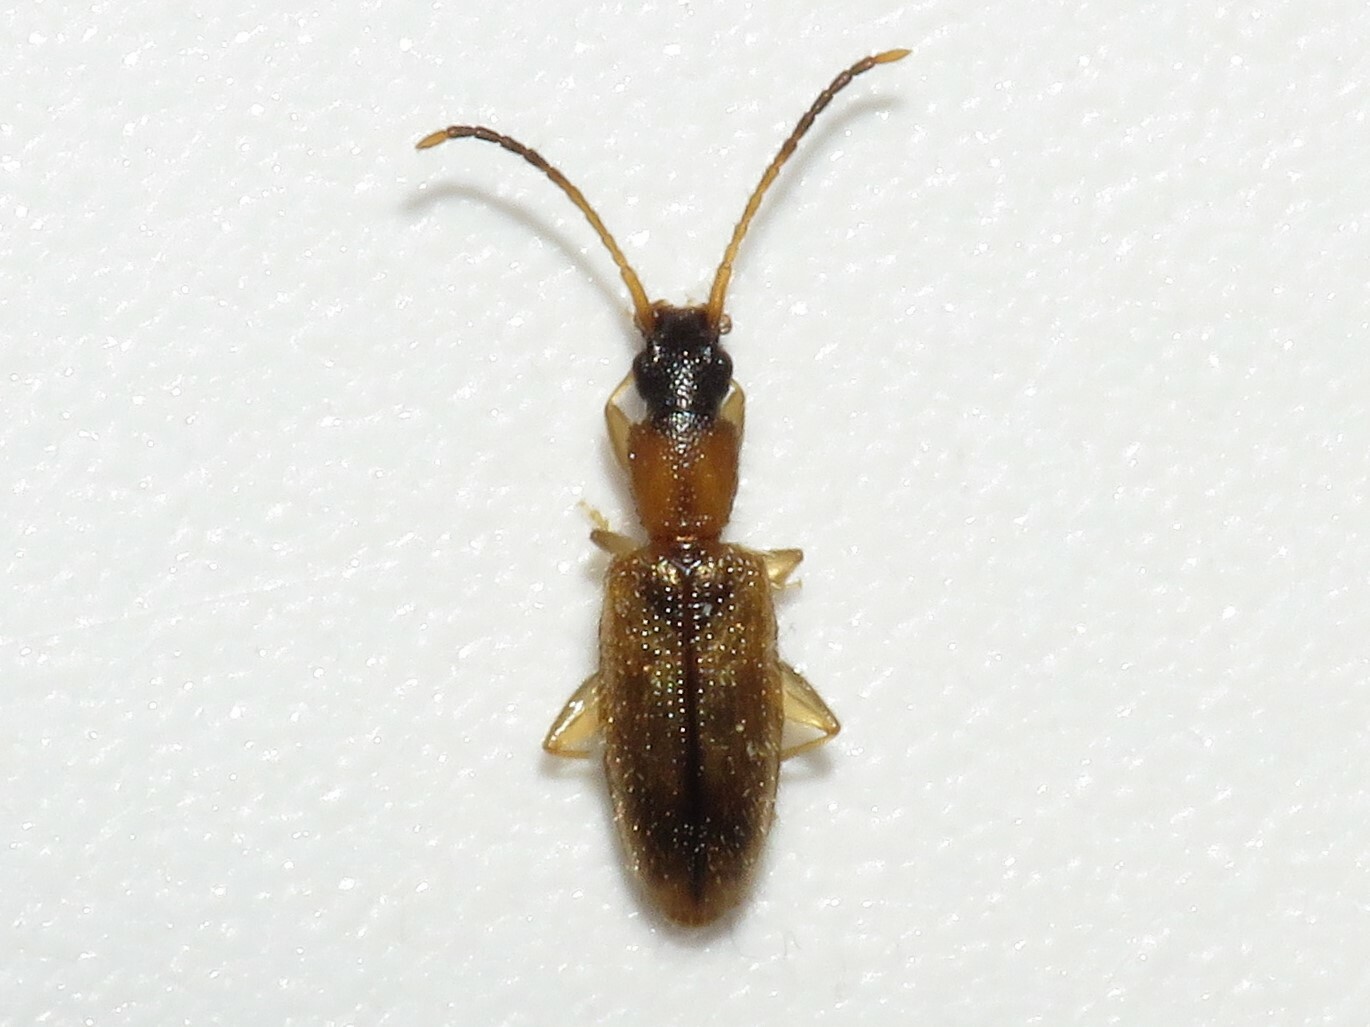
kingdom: Animalia
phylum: Arthropoda
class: Insecta
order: Coleoptera
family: Silvanidae
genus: Telephanus
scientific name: Telephanus velox
